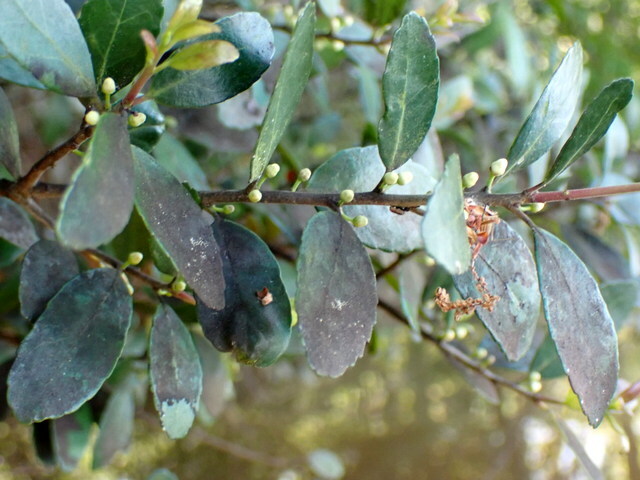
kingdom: Plantae
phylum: Tracheophyta
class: Magnoliopsida
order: Aquifoliales
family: Aquifoliaceae
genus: Ilex
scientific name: Ilex vomitoria
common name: Yaupon holly
